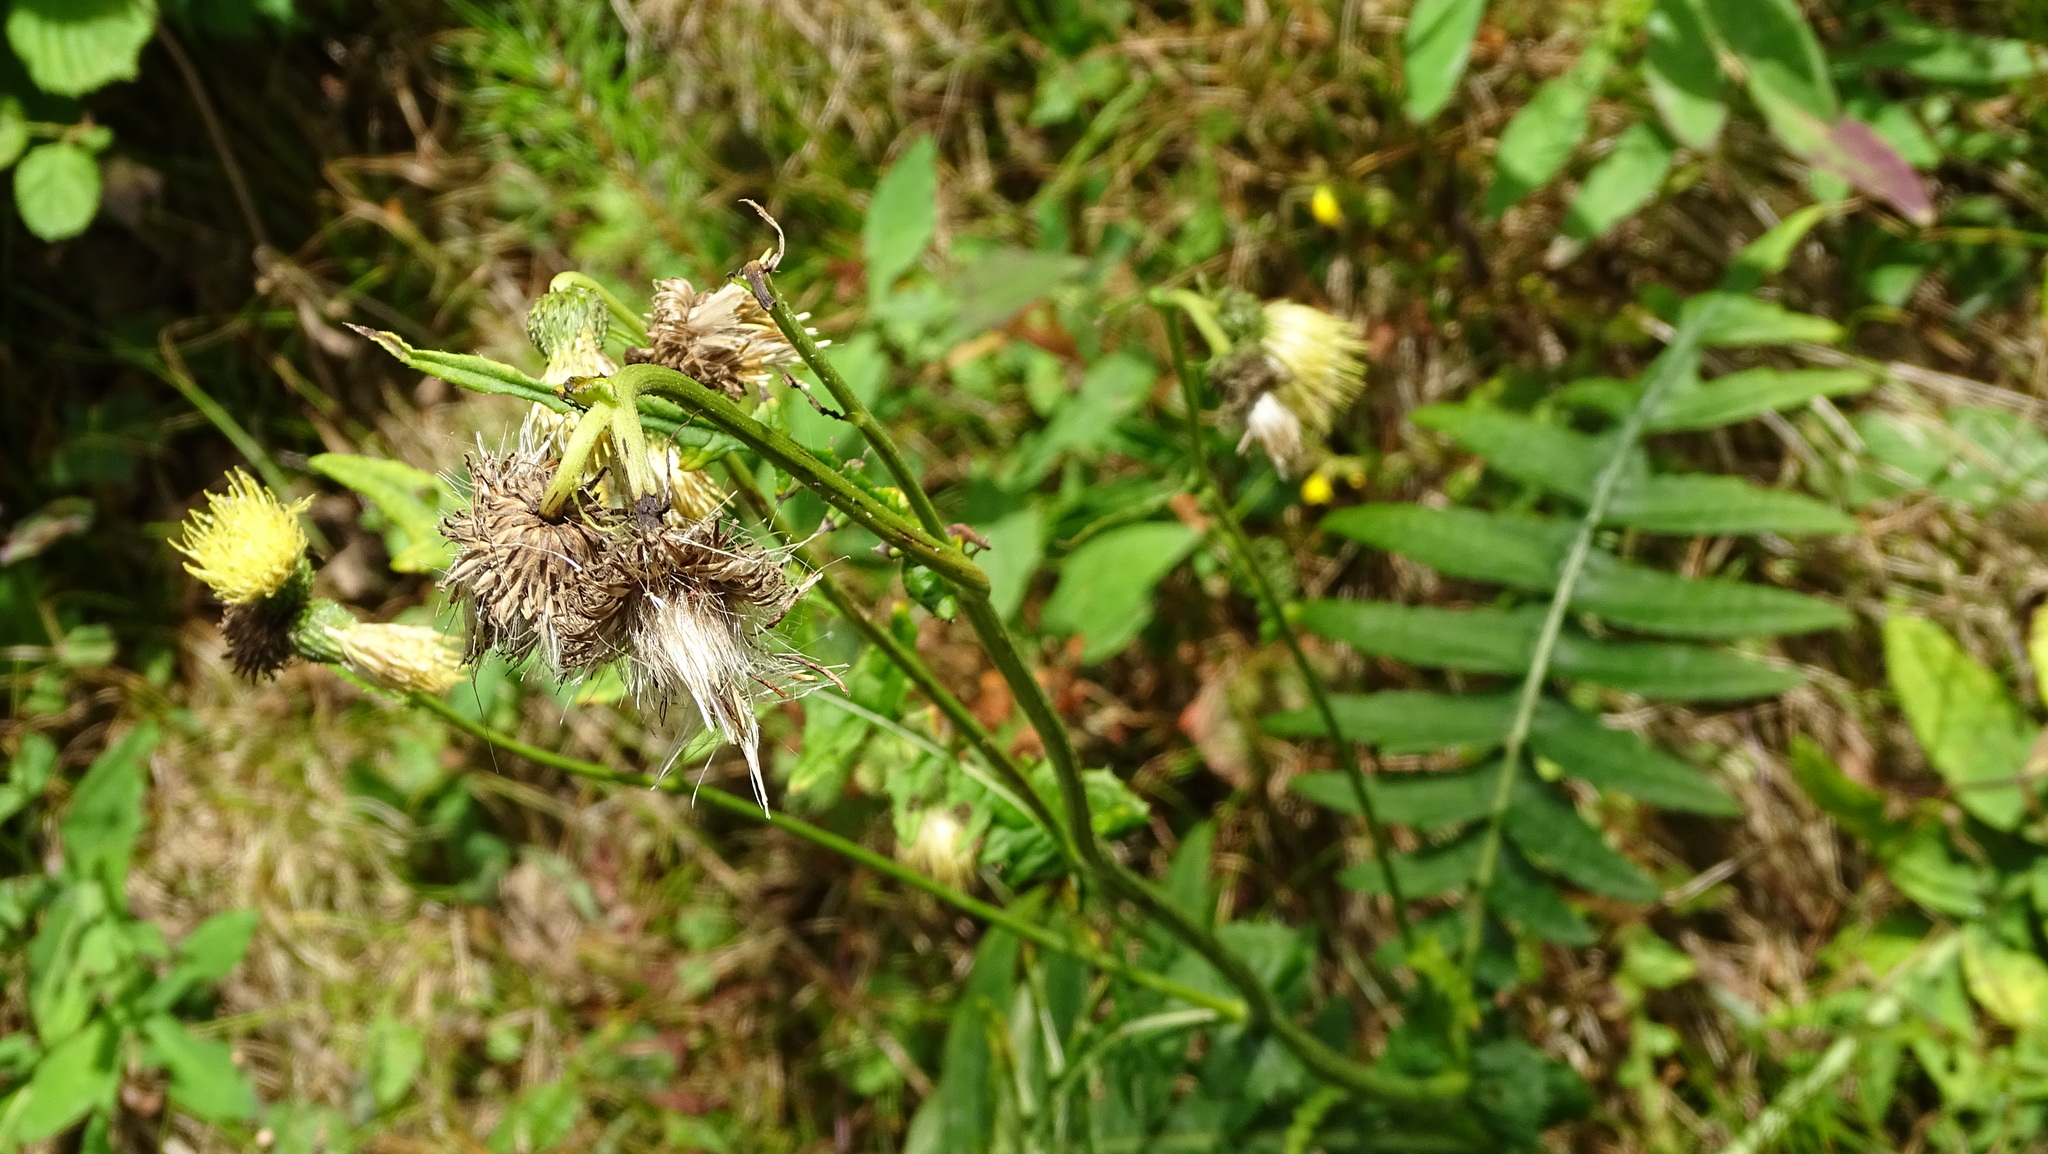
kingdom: Plantae
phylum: Tracheophyta
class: Magnoliopsida
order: Asterales
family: Asteraceae
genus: Cirsium
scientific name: Cirsium erisithales
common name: Yellow thistle
